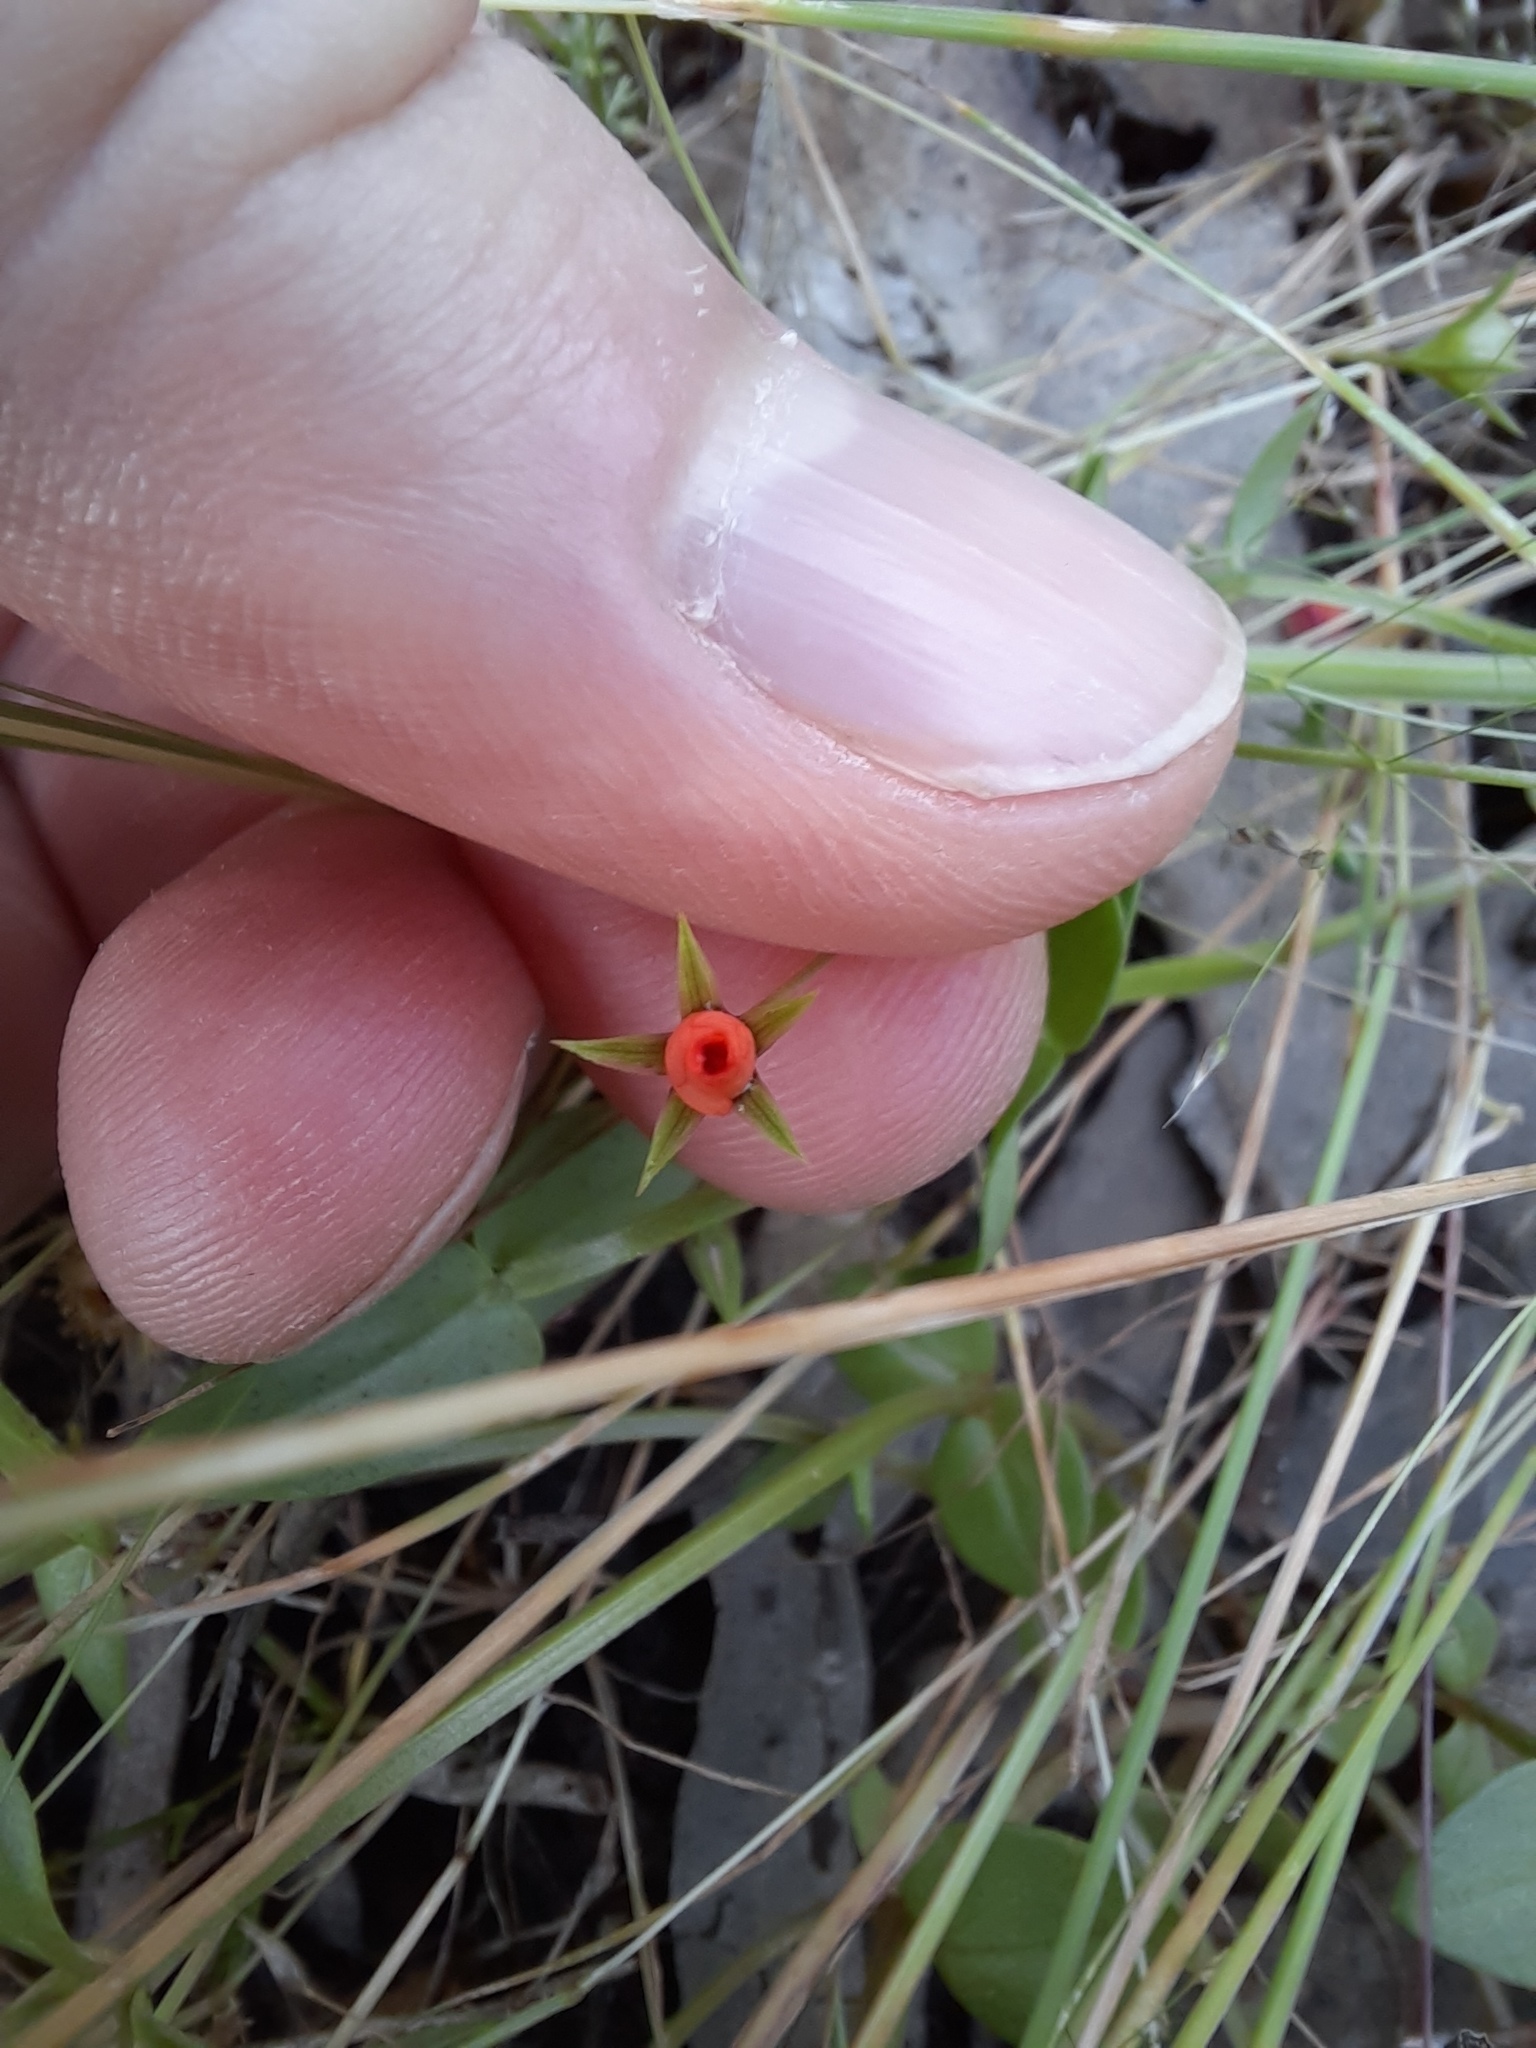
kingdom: Plantae
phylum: Tracheophyta
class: Magnoliopsida
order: Ericales
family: Primulaceae
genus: Lysimachia
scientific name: Lysimachia arvensis
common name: Scarlet pimpernel
